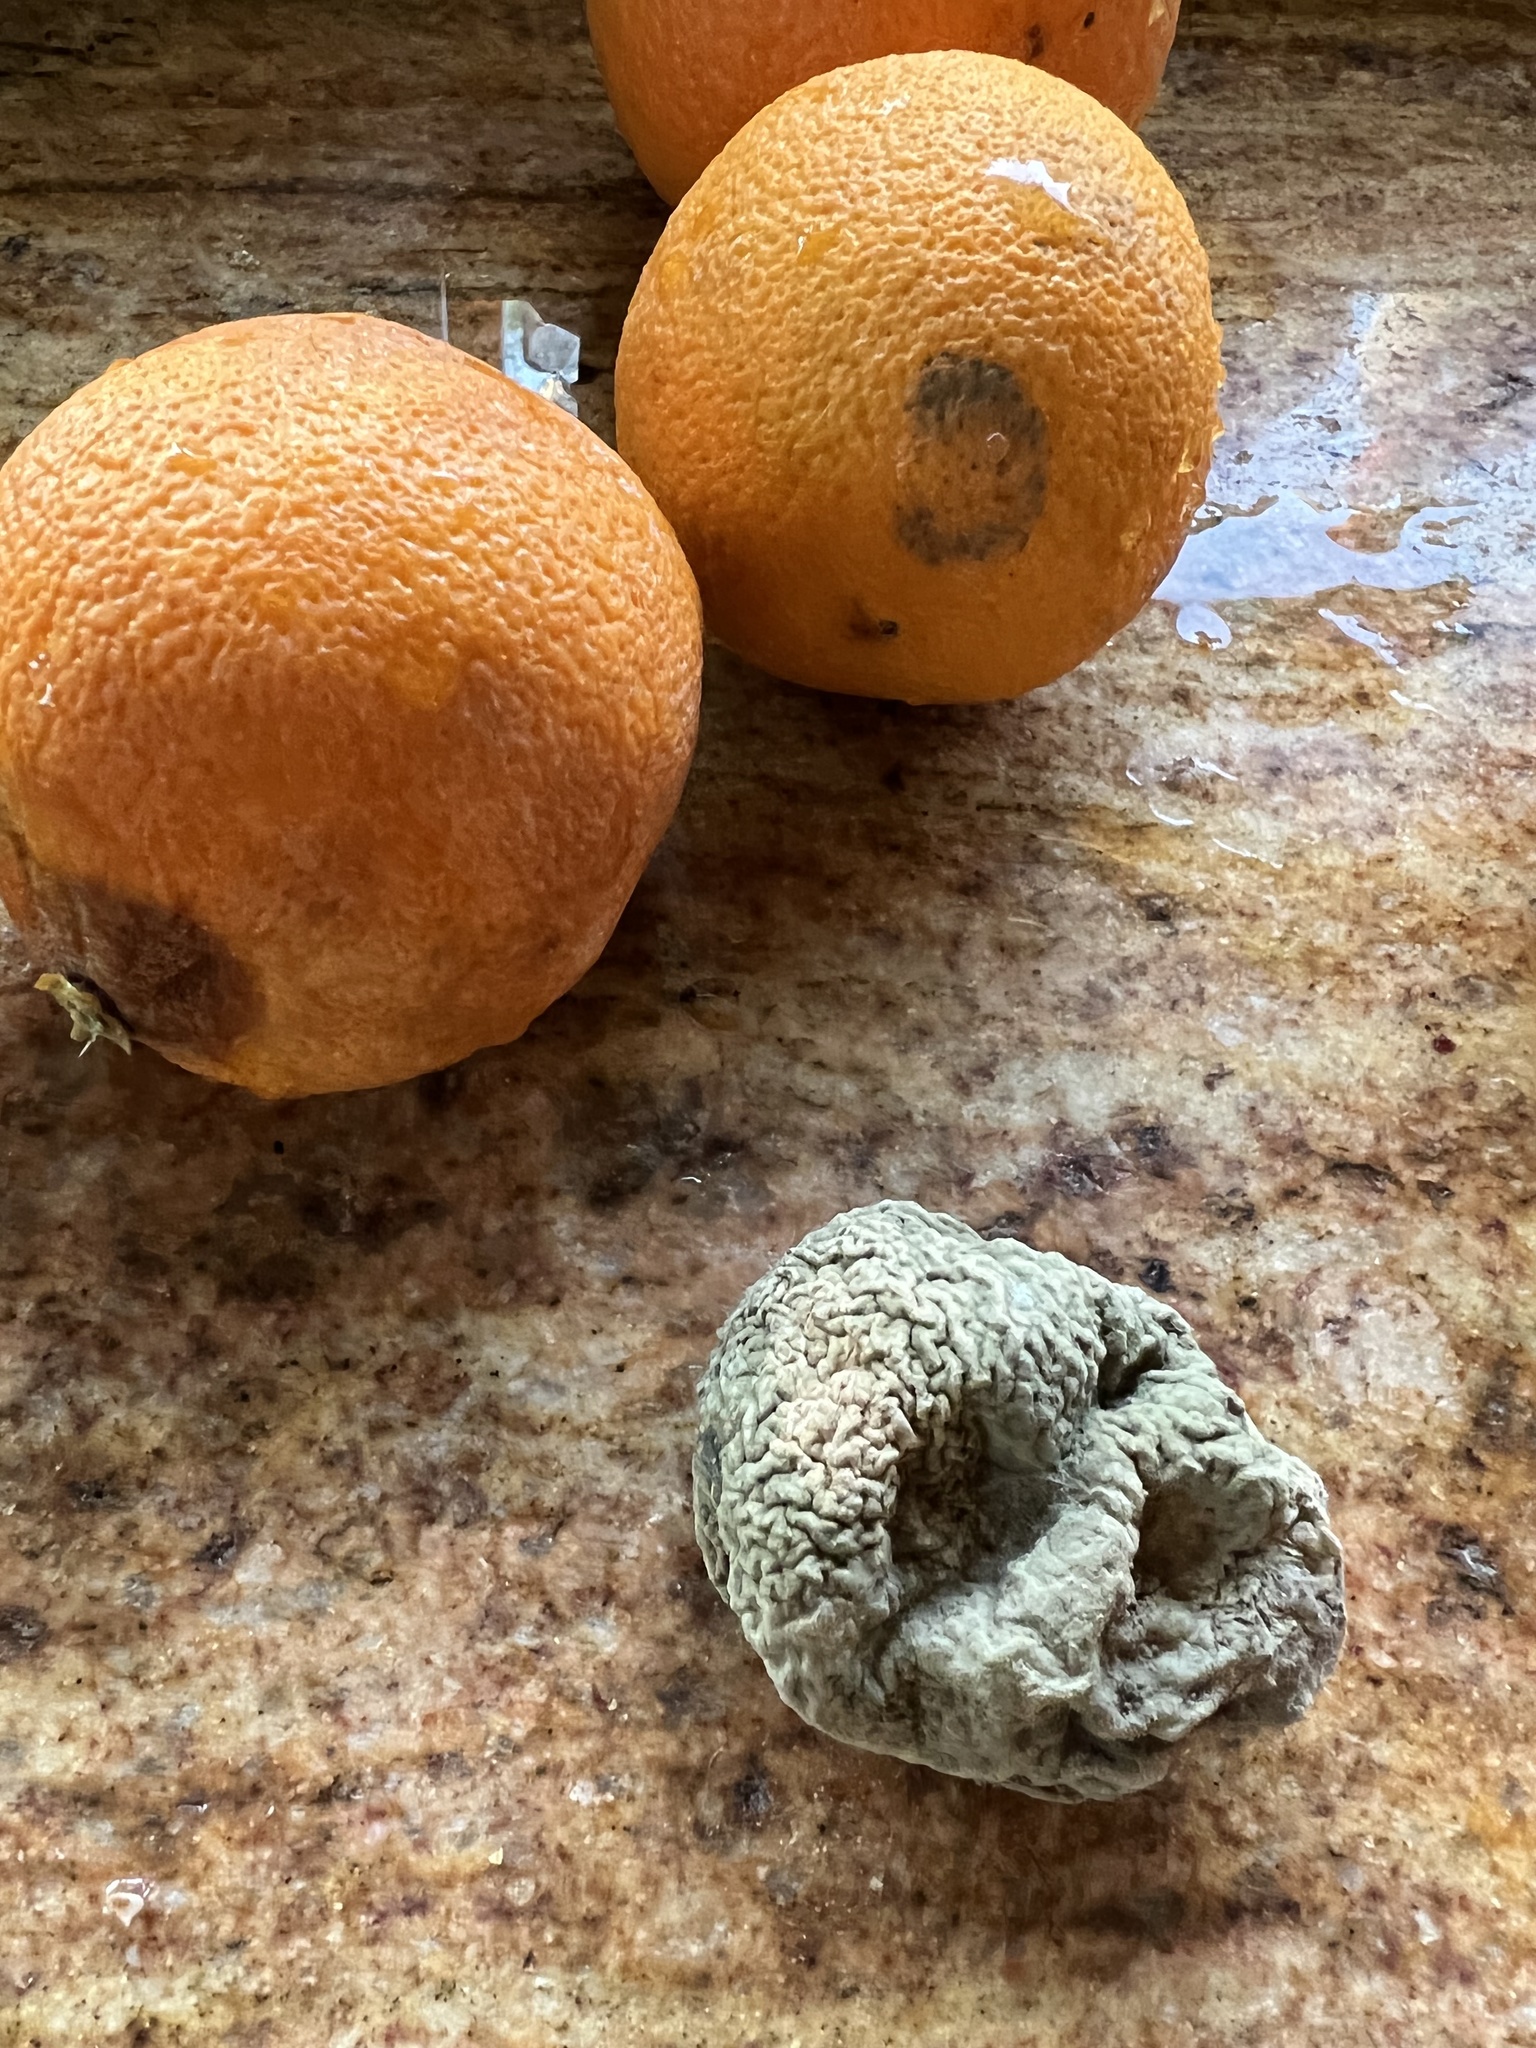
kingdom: Fungi
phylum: Ascomycota
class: Eurotiomycetes
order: Eurotiales
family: Aspergillaceae
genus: Penicillium
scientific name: Penicillium digitatum
